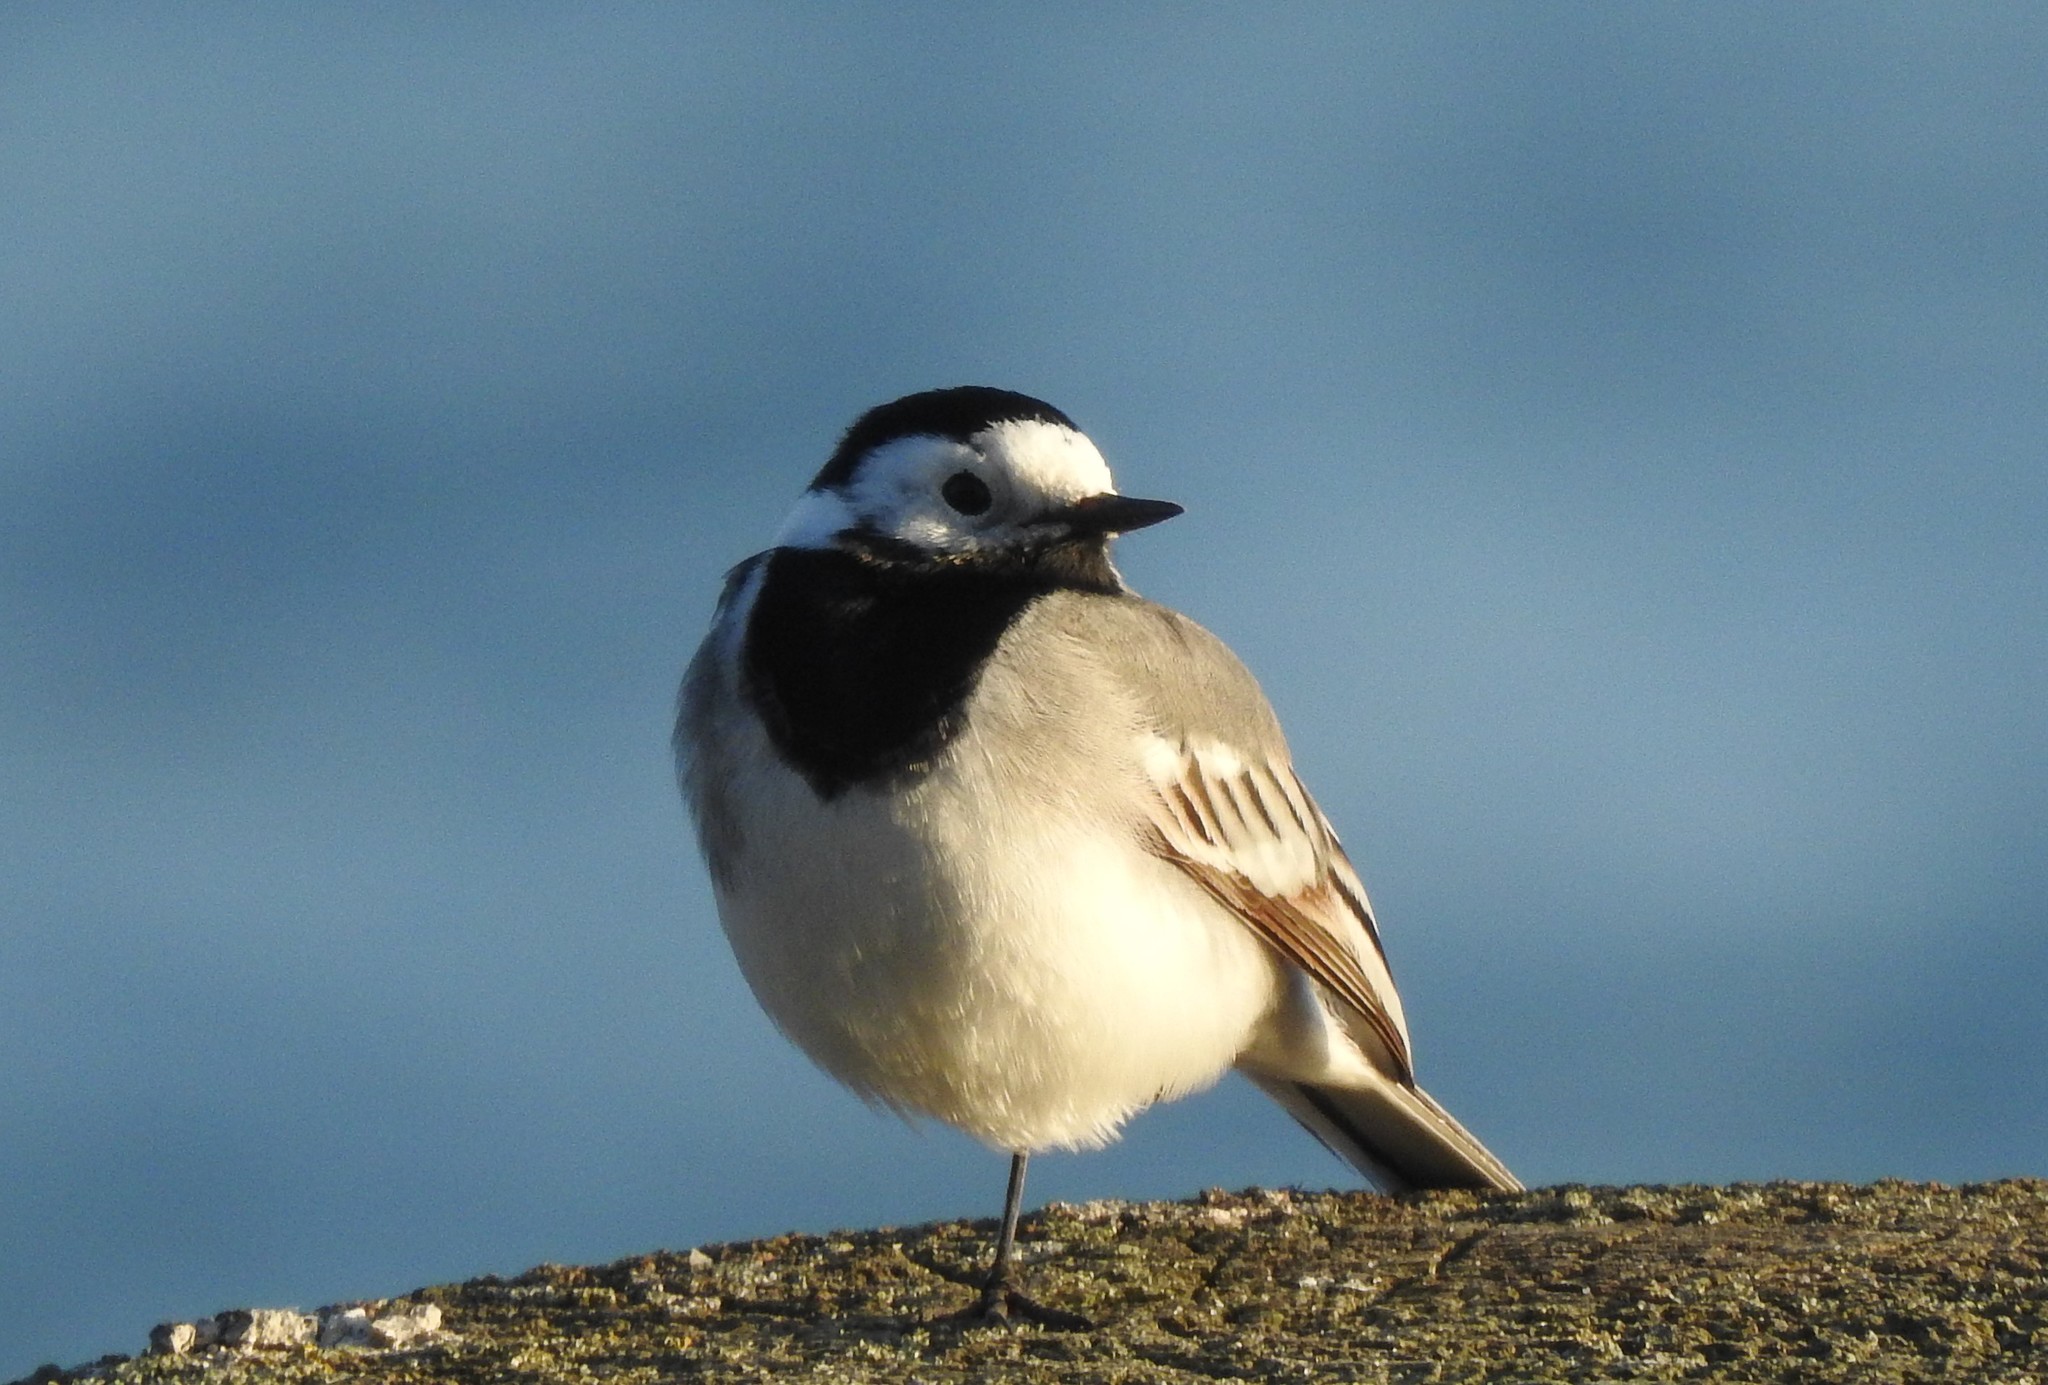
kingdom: Animalia
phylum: Chordata
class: Aves
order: Passeriformes
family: Motacillidae
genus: Motacilla
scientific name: Motacilla alba
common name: White wagtail
